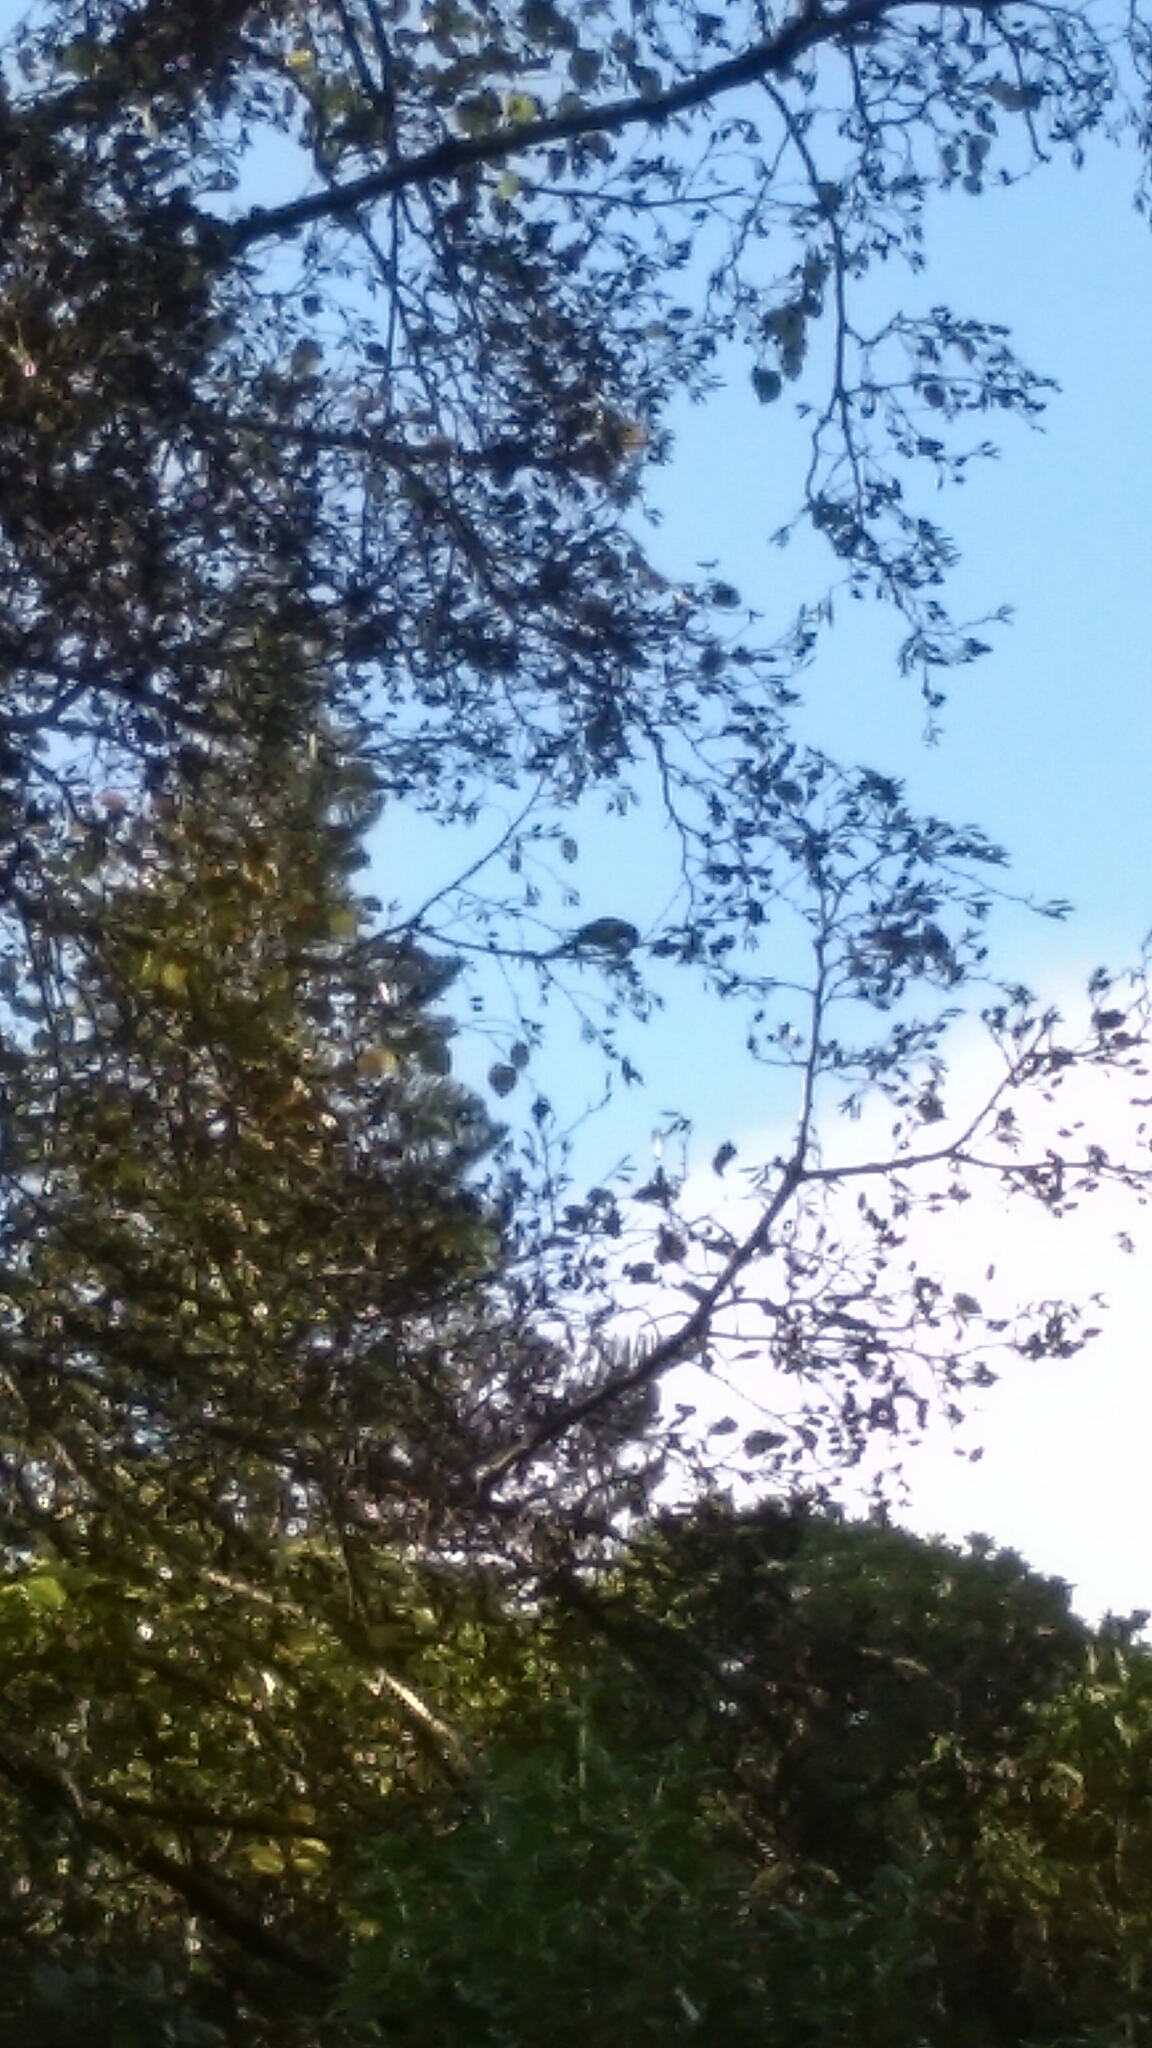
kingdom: Animalia
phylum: Chordata
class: Aves
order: Psittaciformes
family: Psittacidae
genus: Platycercus
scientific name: Platycercus eximius
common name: Eastern rosella
